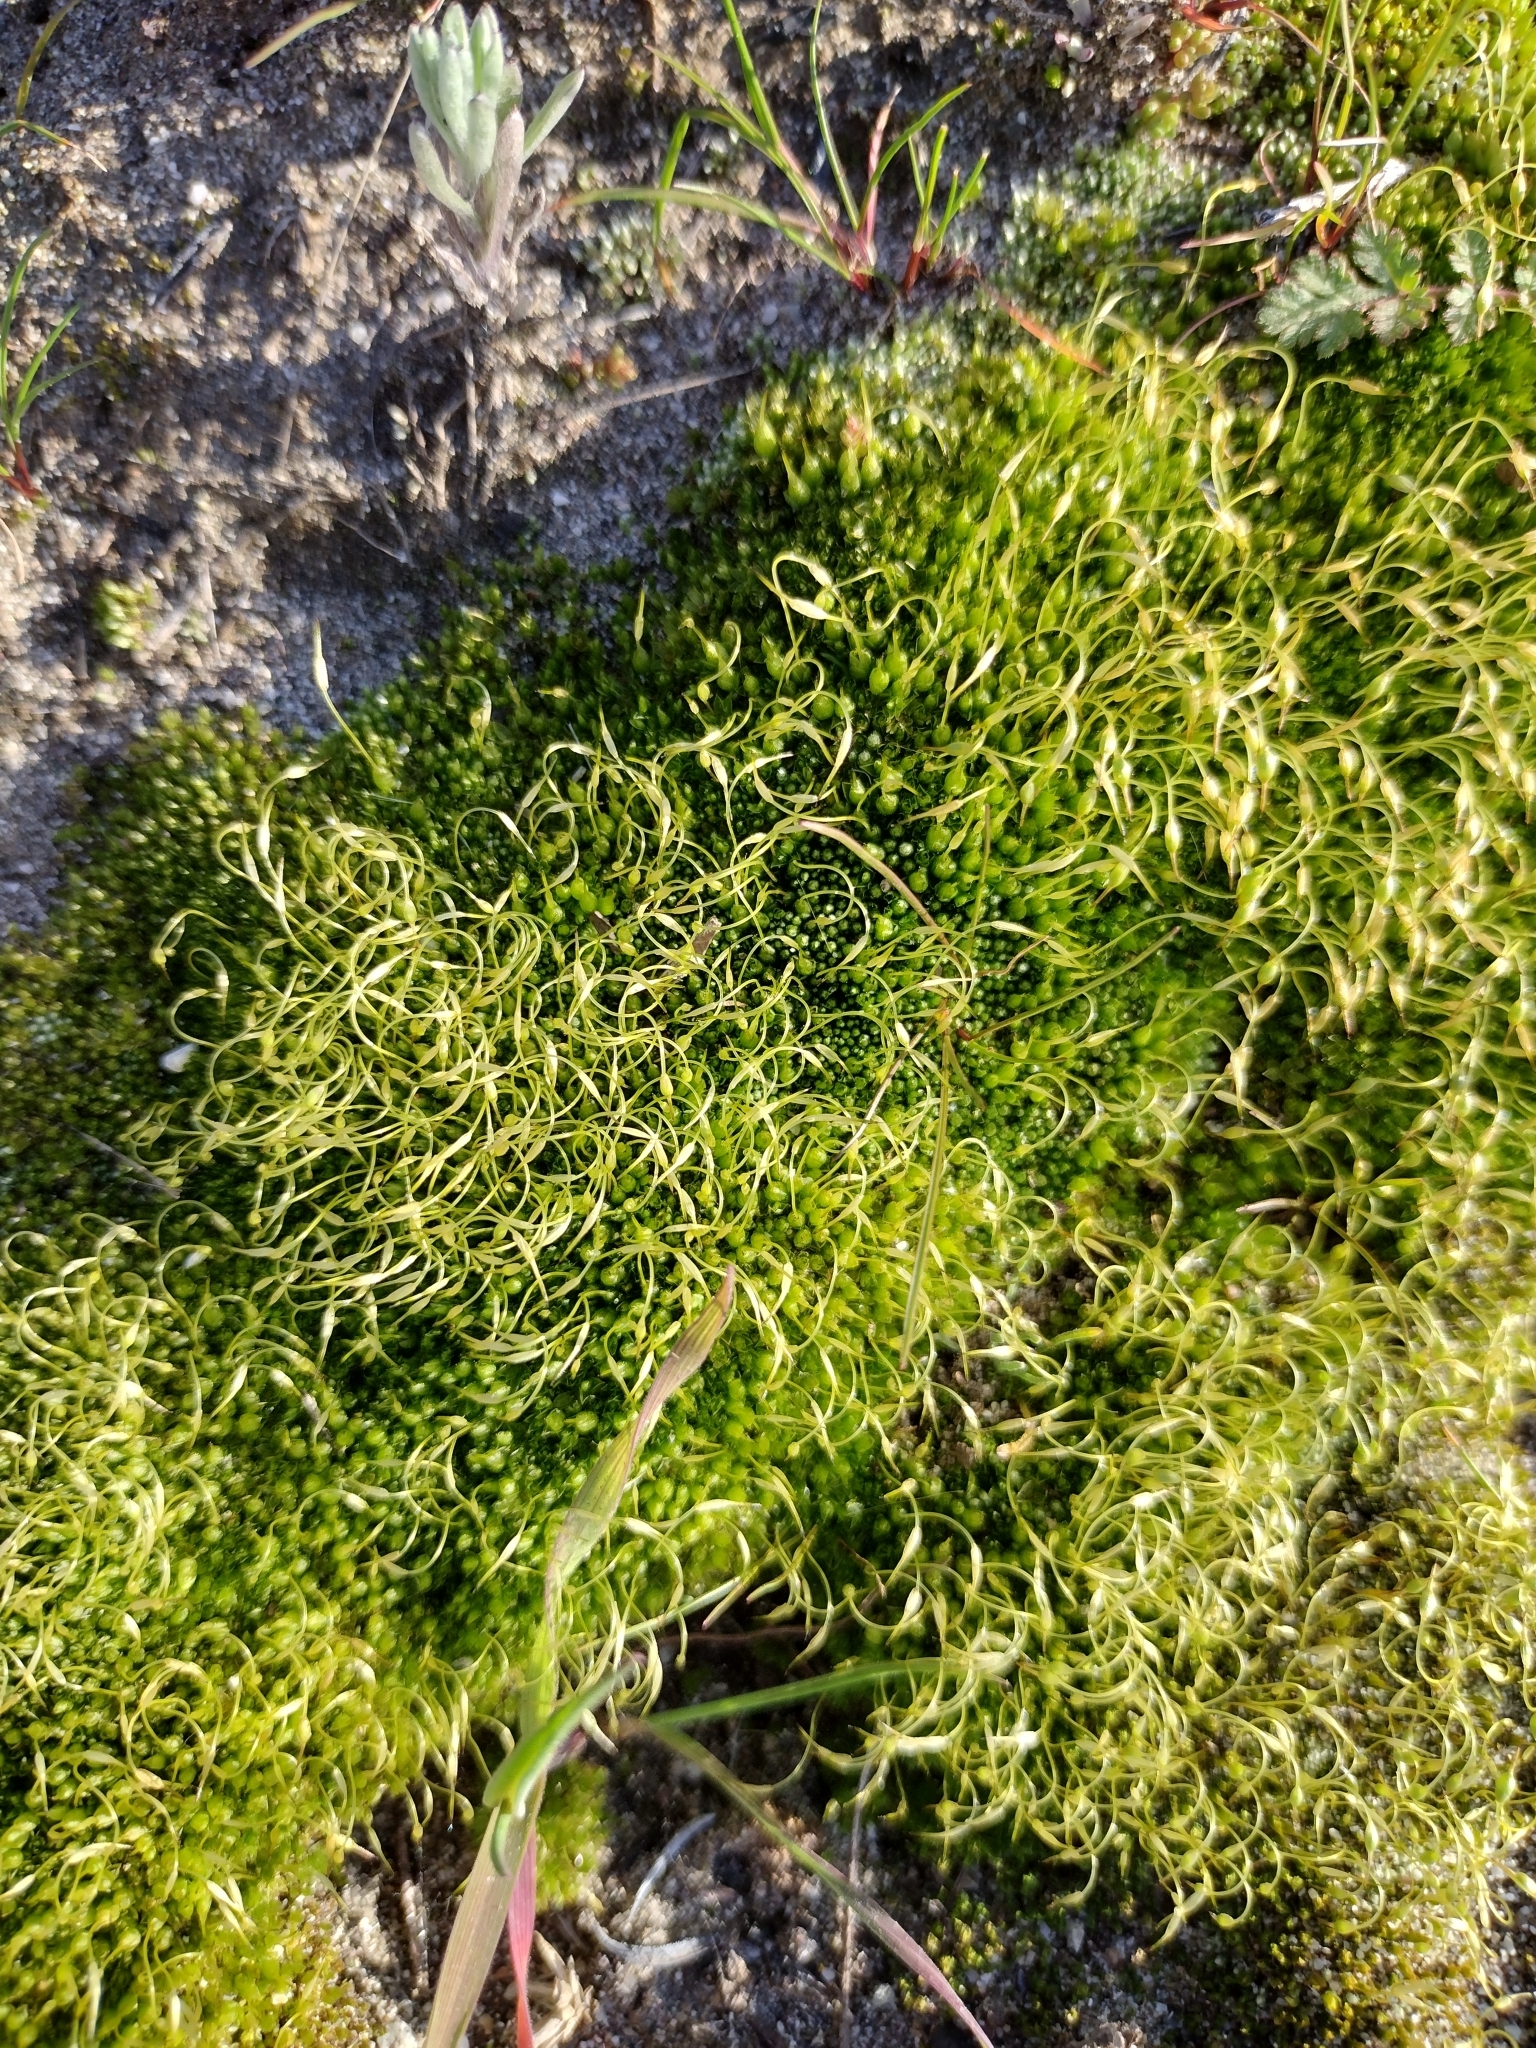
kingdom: Plantae
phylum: Bryophyta
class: Bryopsida
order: Funariales
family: Funariaceae
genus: Funaria
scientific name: Funaria hygrometrica
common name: Common cord moss
